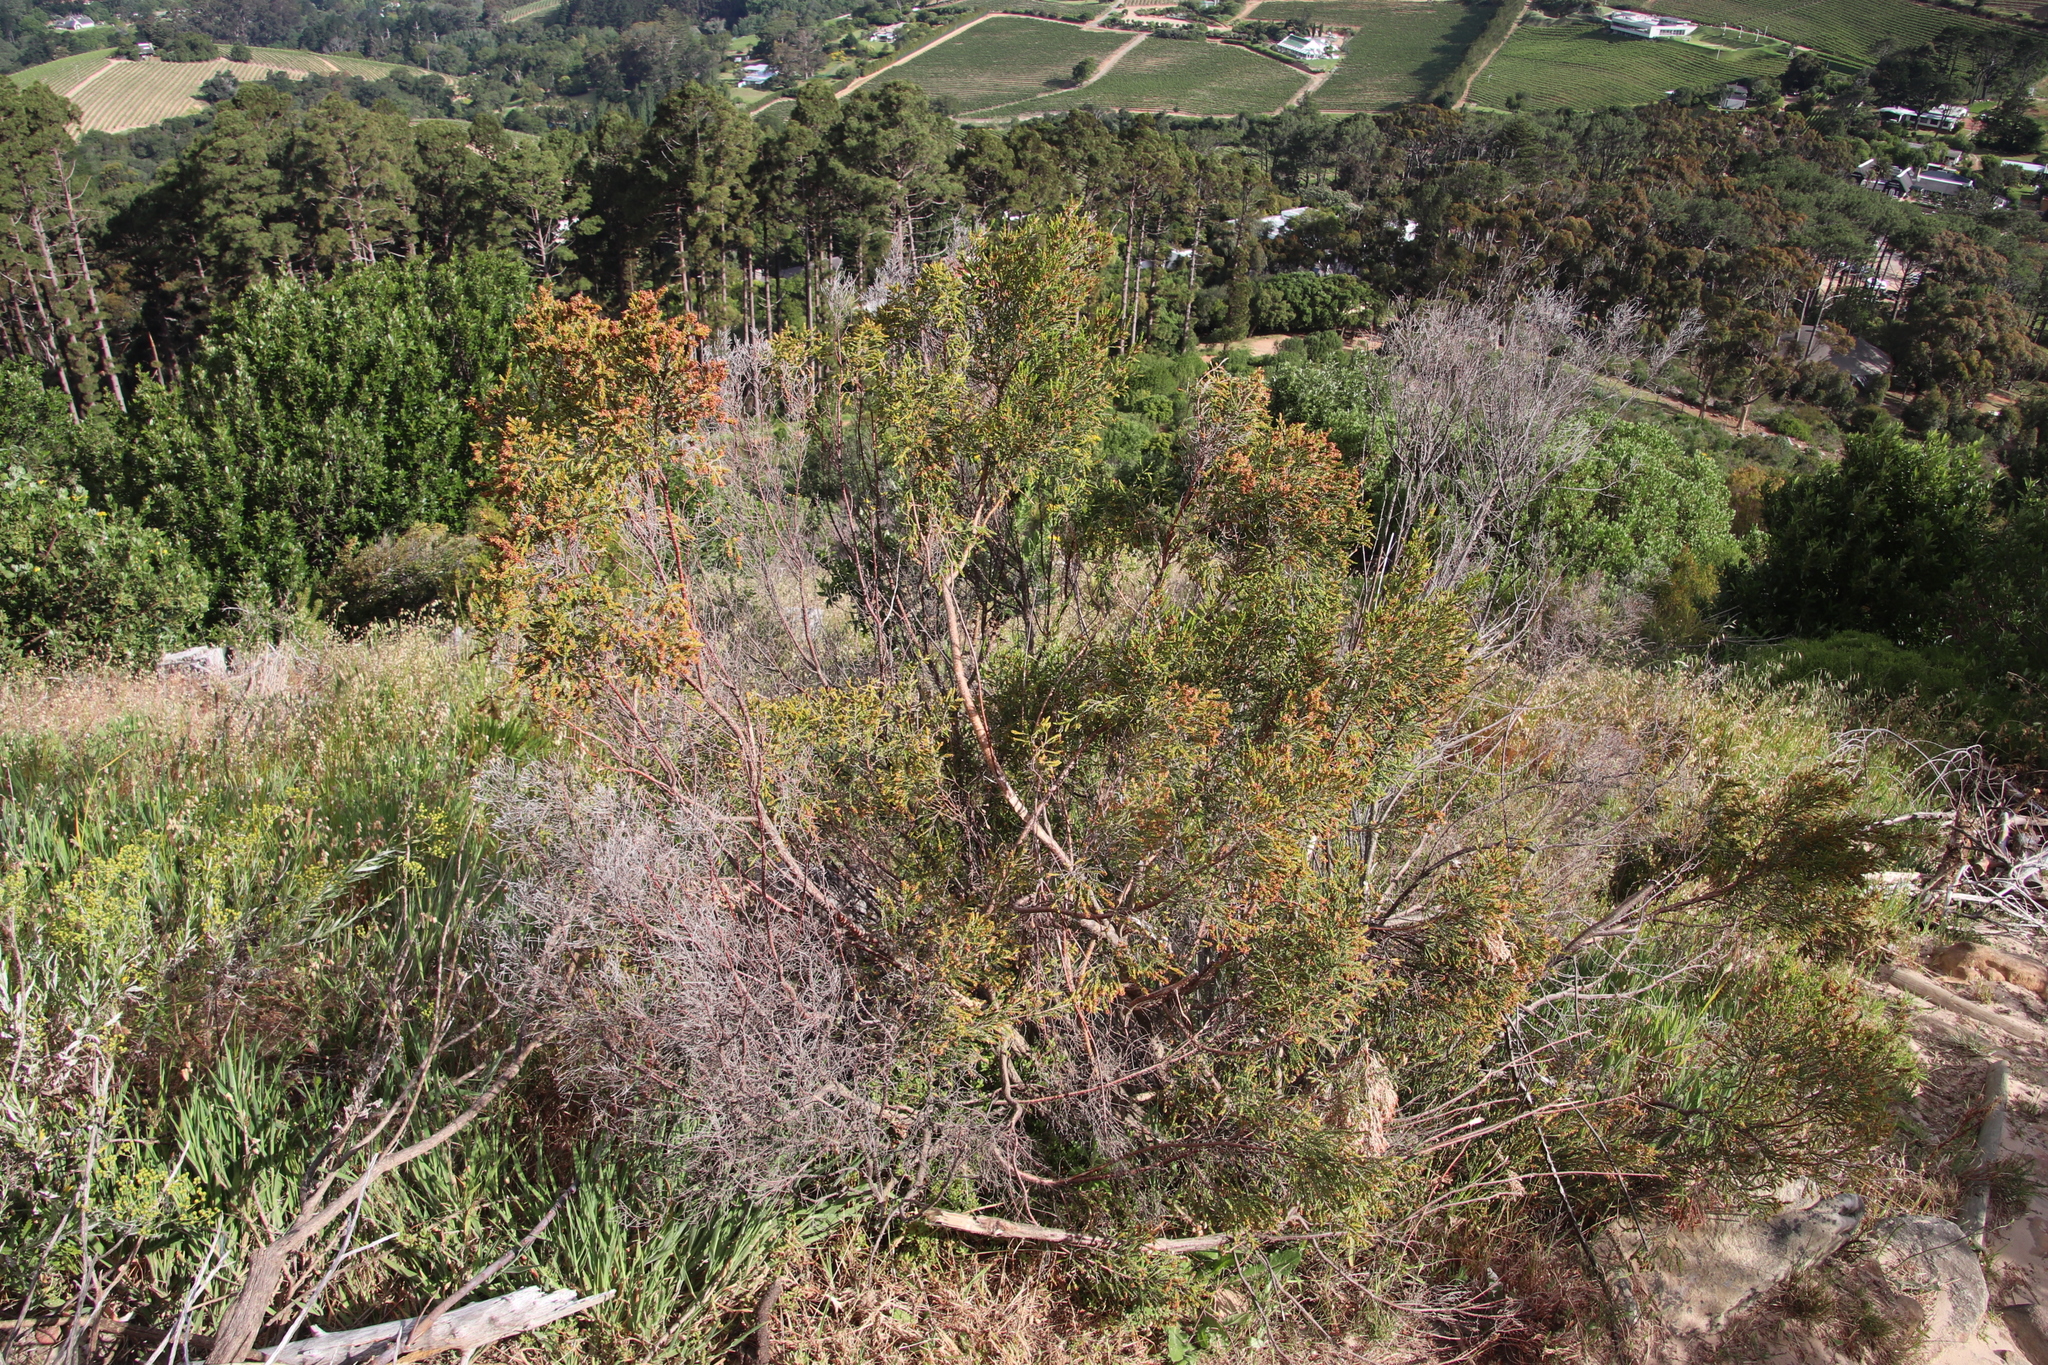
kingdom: Plantae
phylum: Tracheophyta
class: Magnoliopsida
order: Malvales
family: Thymelaeaceae
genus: Passerina
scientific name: Passerina corymbosa
